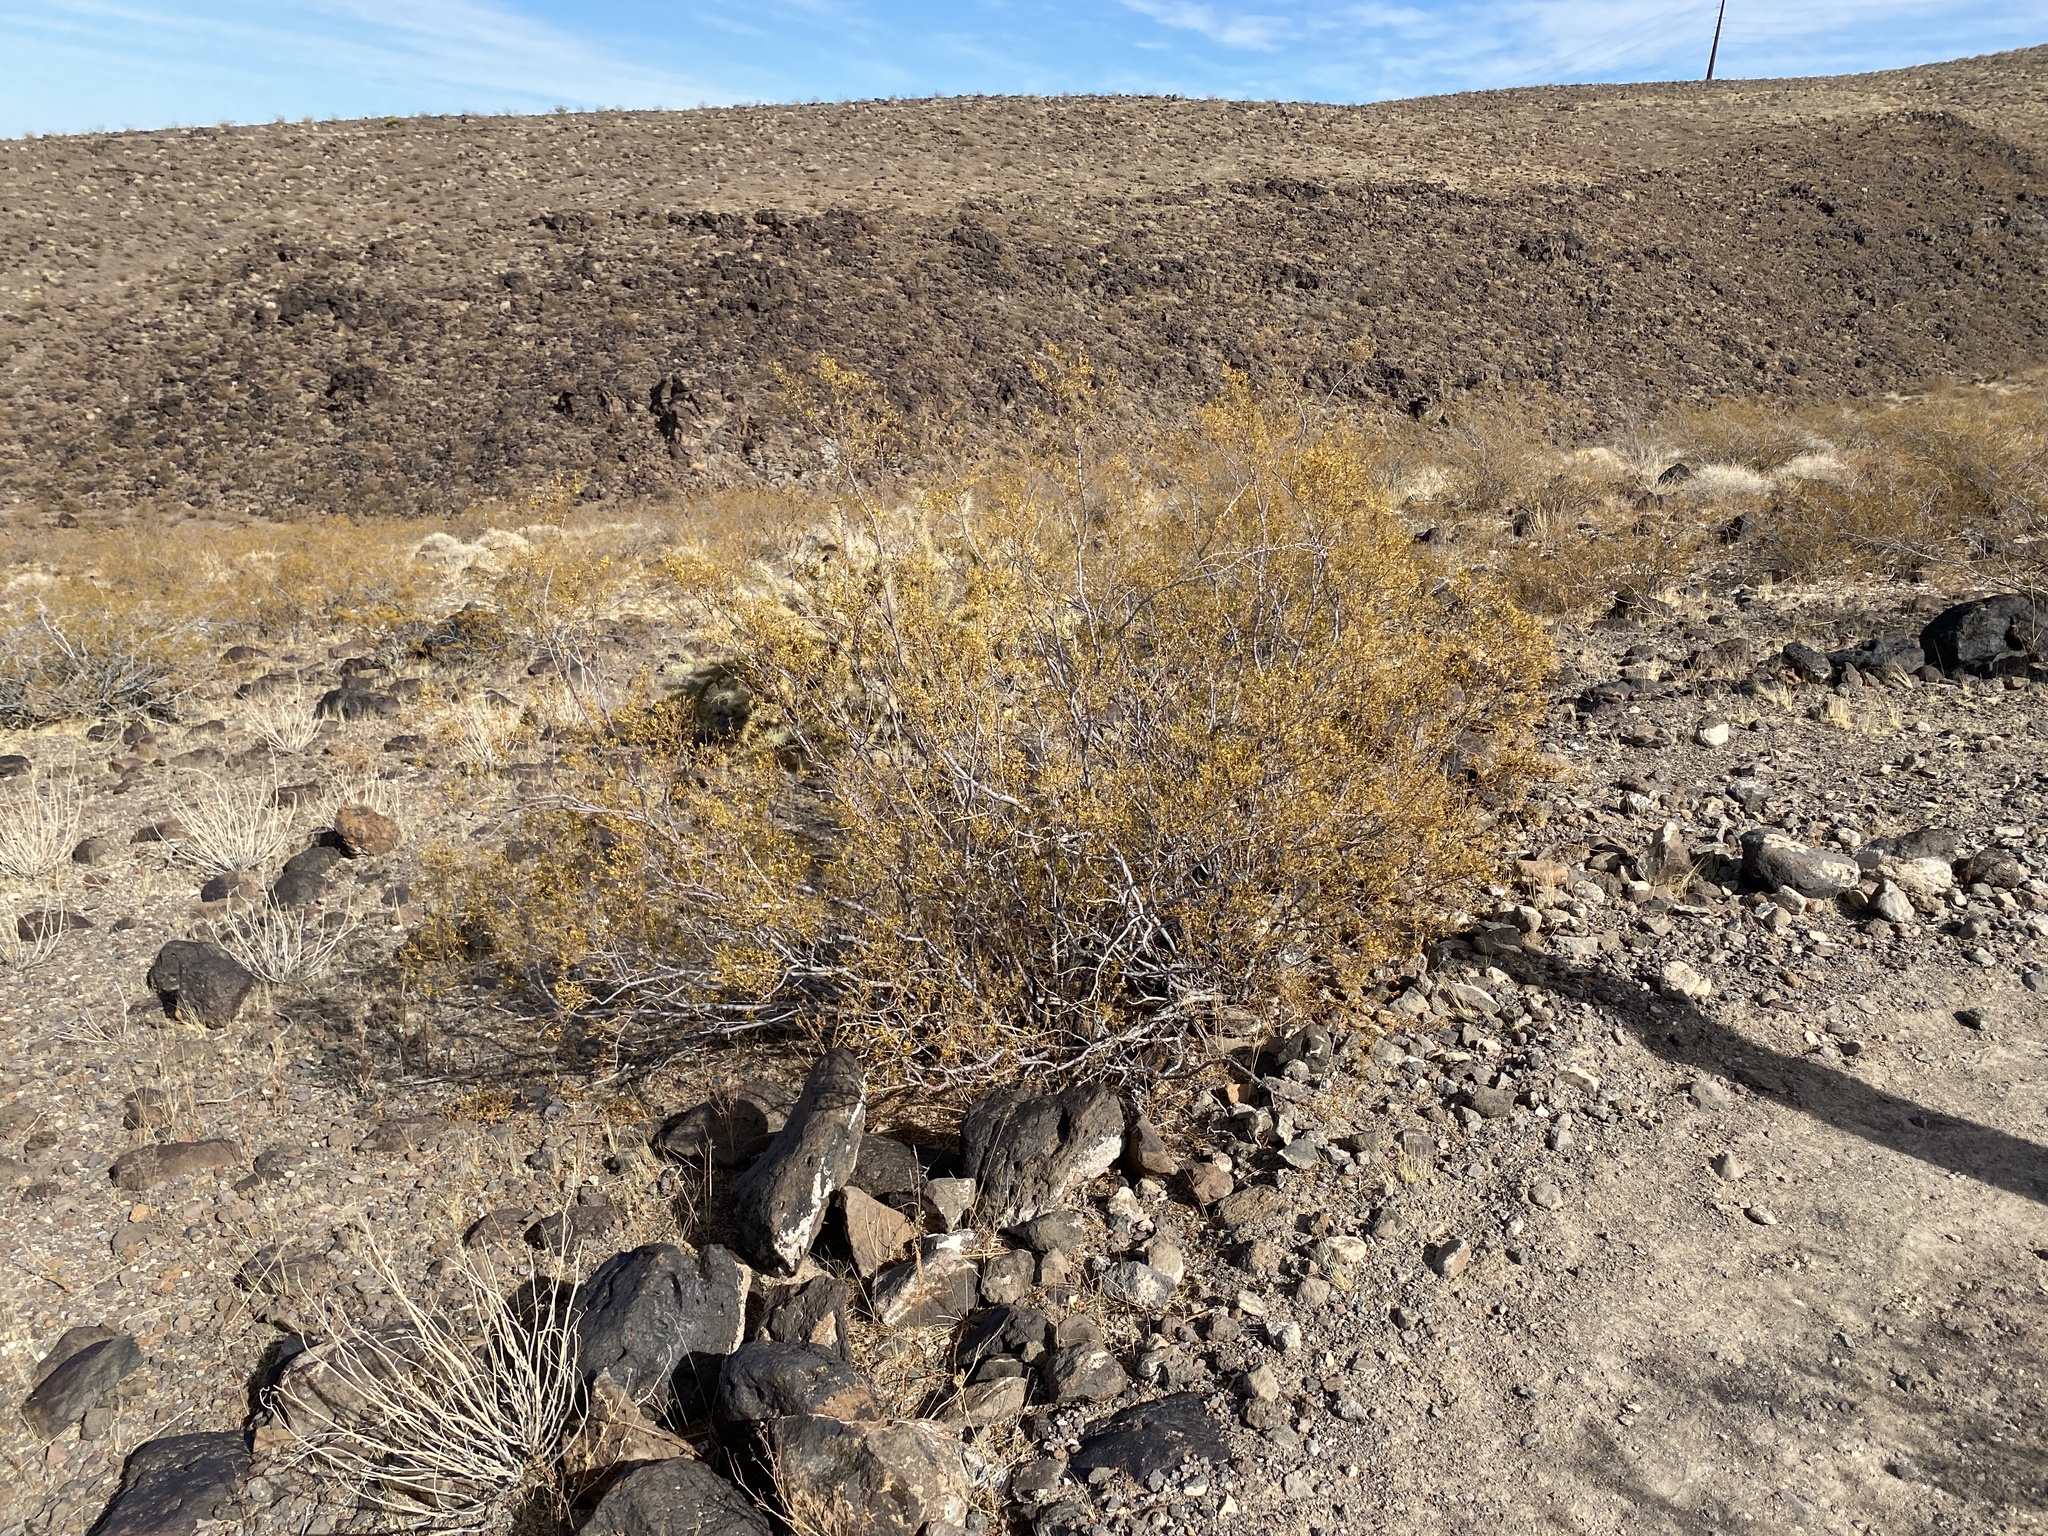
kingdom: Plantae
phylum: Tracheophyta
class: Magnoliopsida
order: Zygophyllales
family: Zygophyllaceae
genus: Larrea
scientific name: Larrea tridentata
